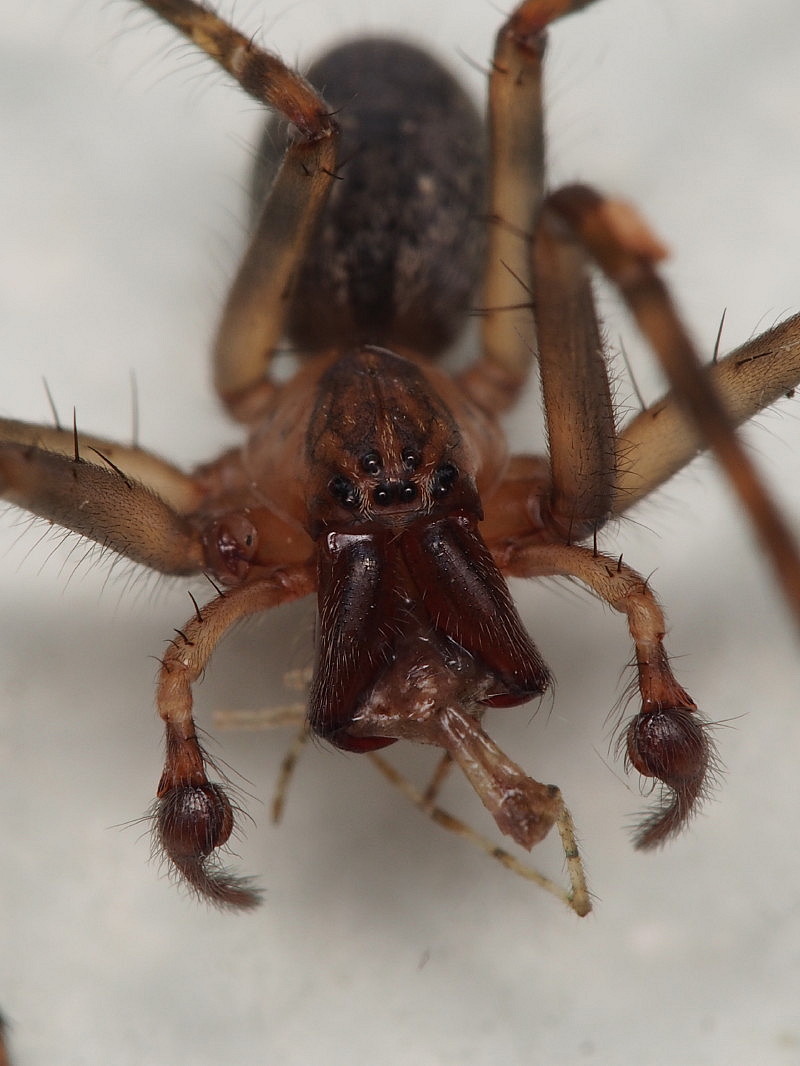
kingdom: Animalia
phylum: Arthropoda
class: Arachnida
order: Araneae
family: Desidae
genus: Nuisiana
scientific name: Nuisiana arboris
